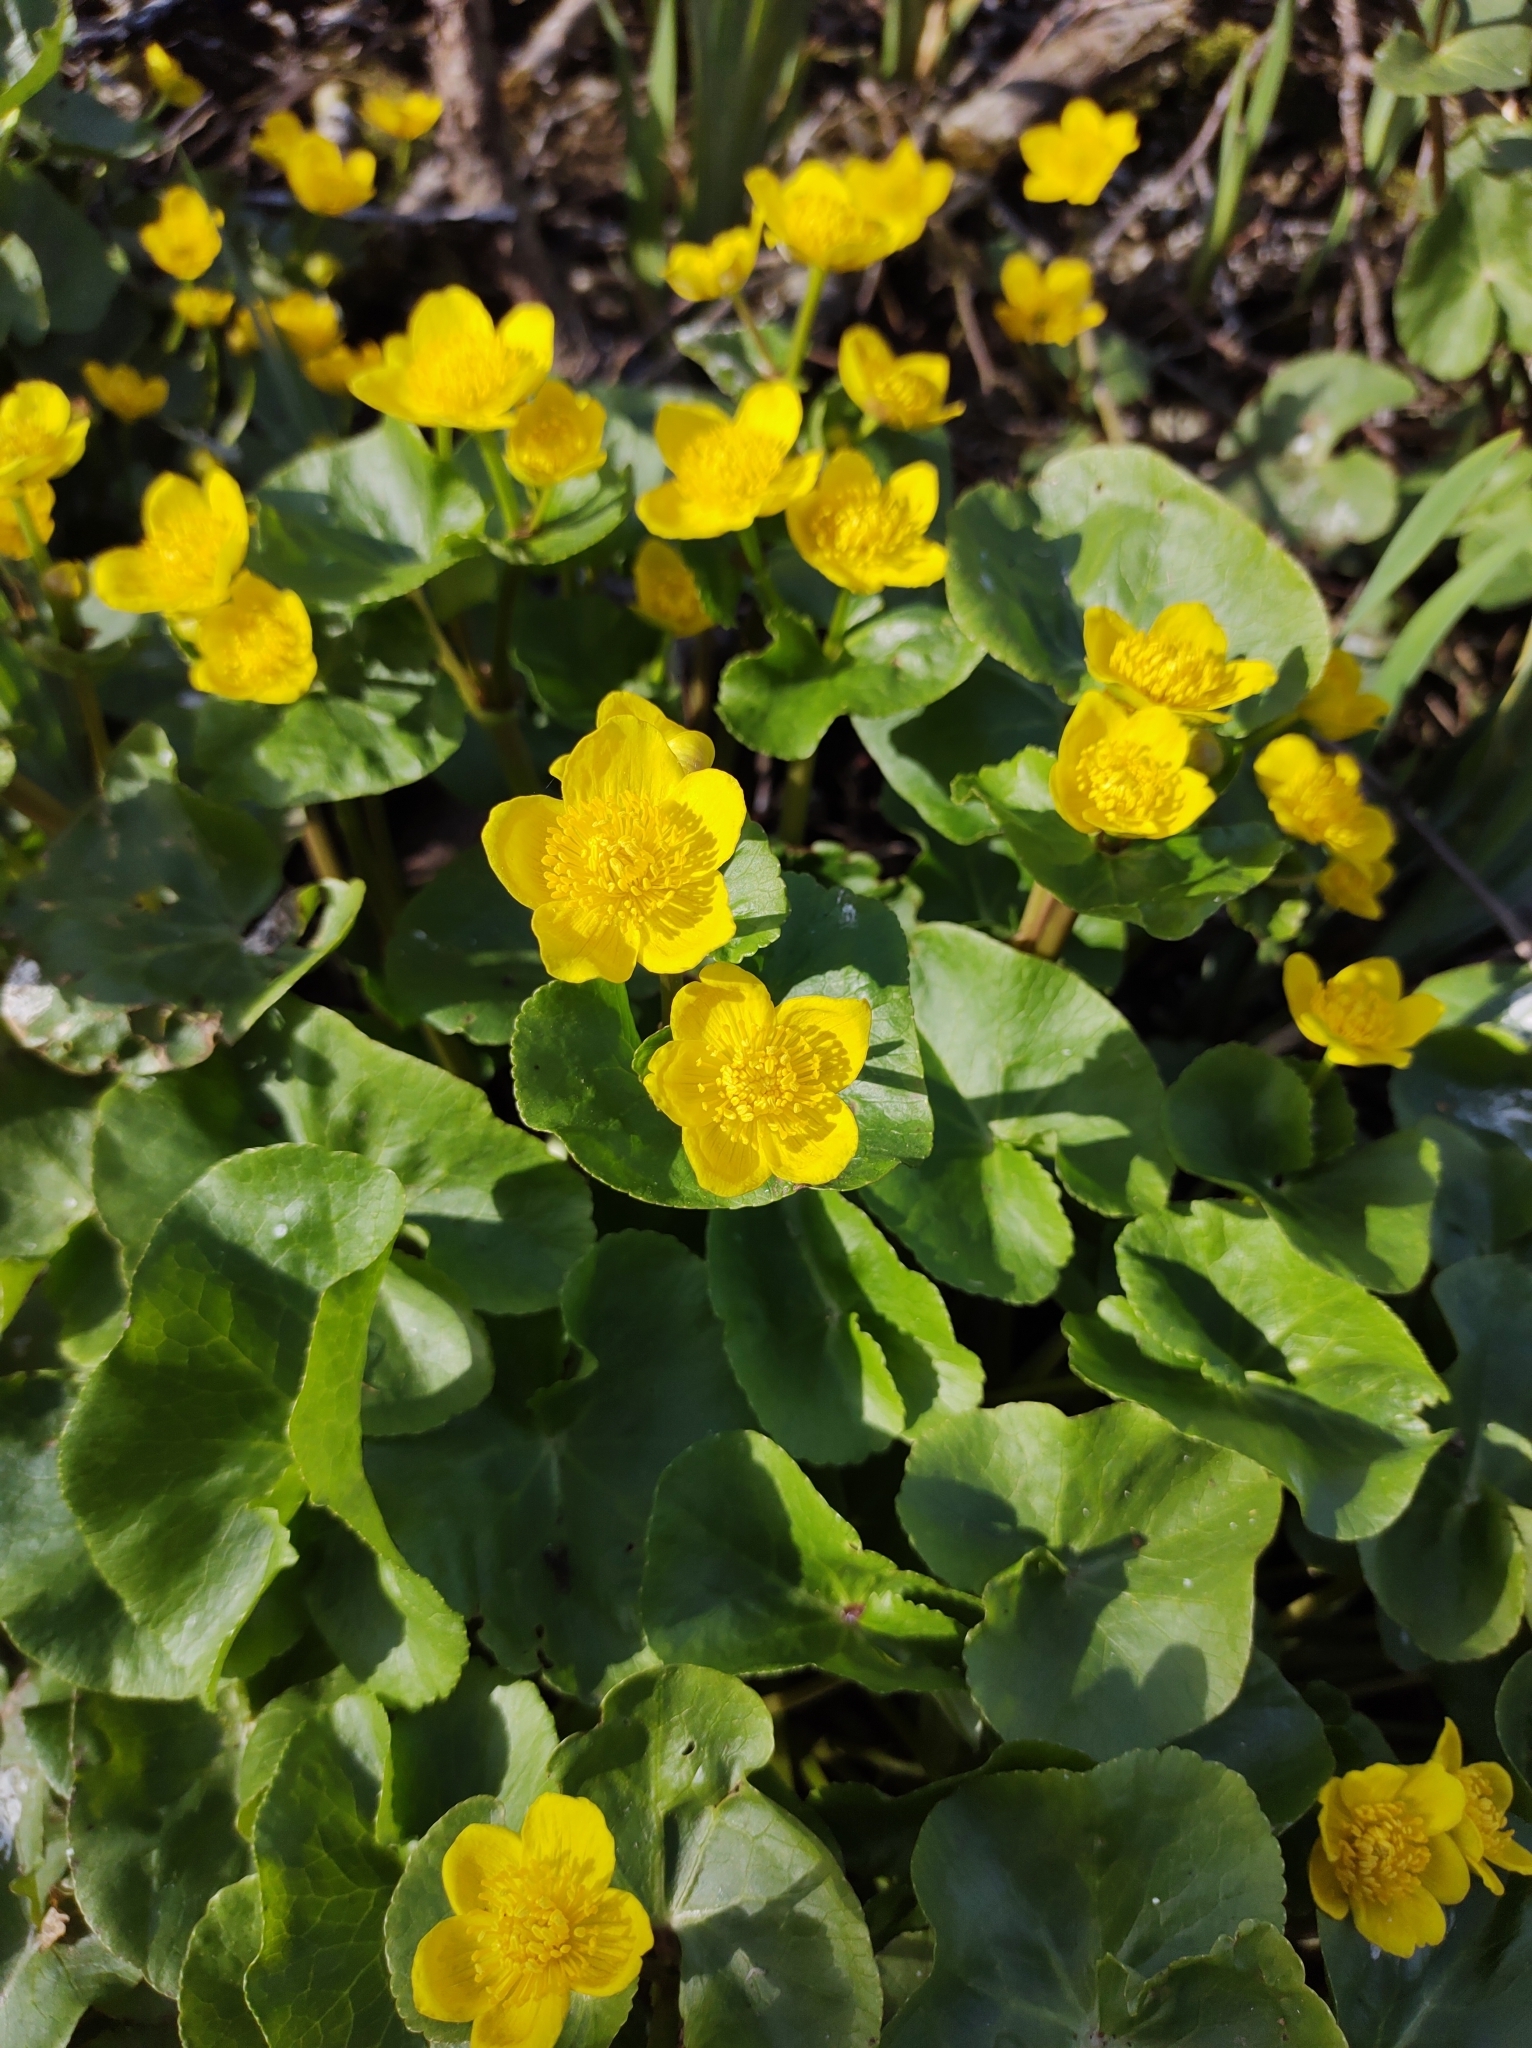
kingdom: Plantae
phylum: Tracheophyta
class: Magnoliopsida
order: Ranunculales
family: Ranunculaceae
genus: Caltha
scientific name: Caltha palustris
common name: Marsh marigold
